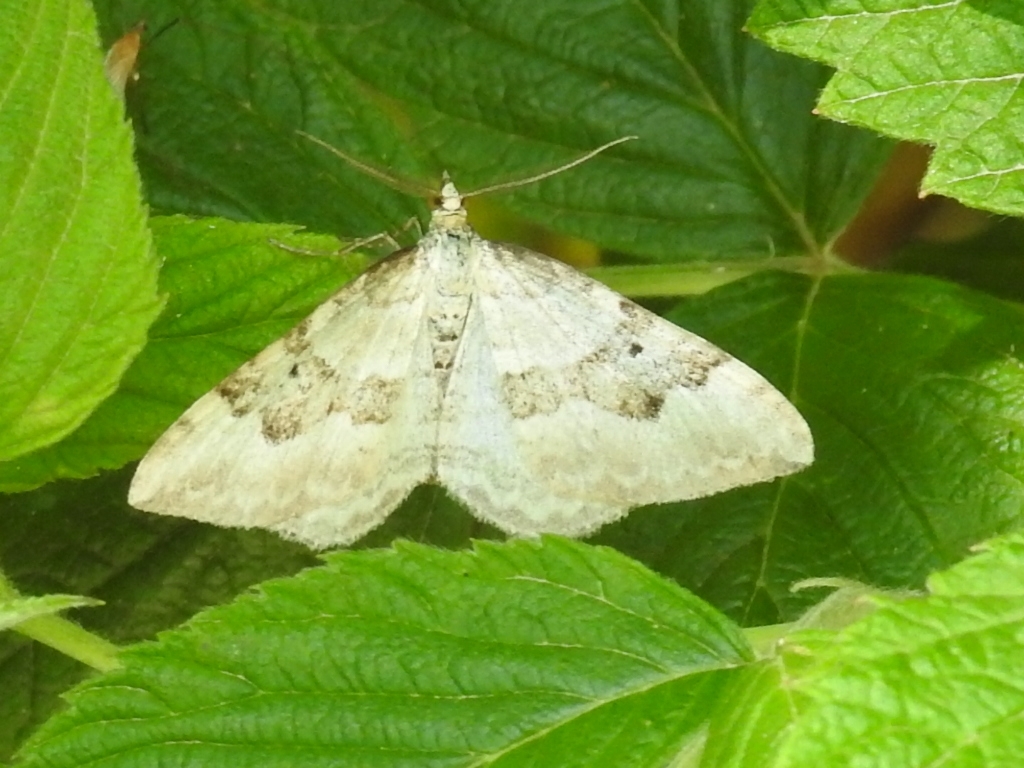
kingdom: Animalia
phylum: Arthropoda
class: Insecta
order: Lepidoptera
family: Geometridae
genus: Xanthorhoe
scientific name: Xanthorhoe montanata
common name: Silver-ground carpet
